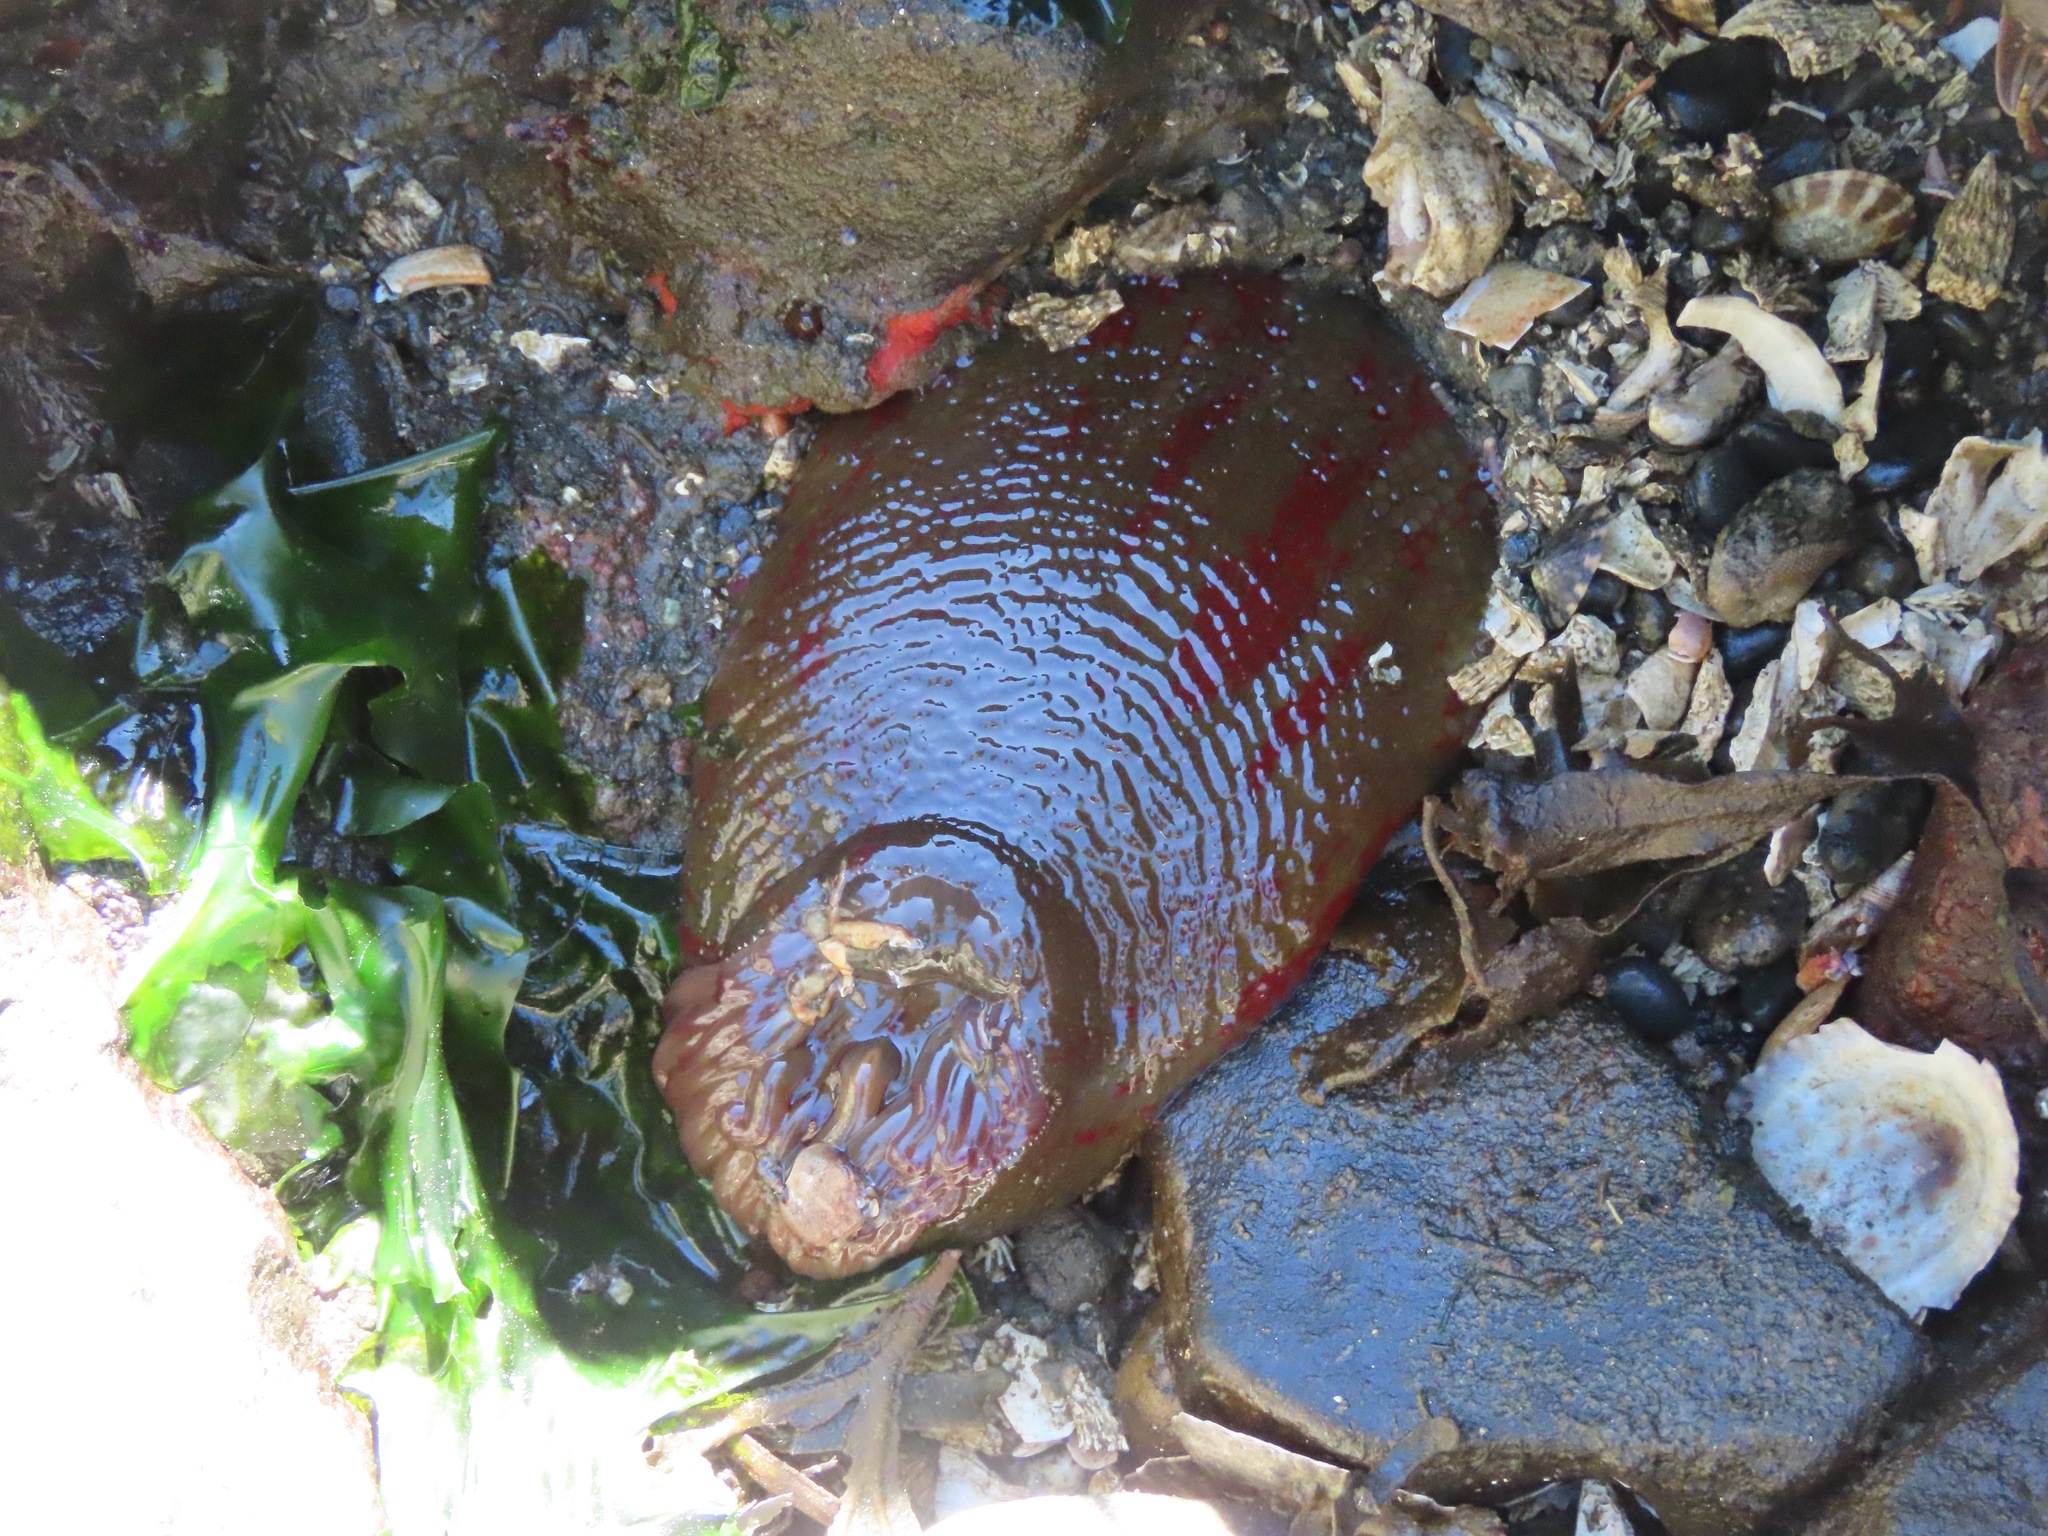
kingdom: Animalia
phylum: Cnidaria
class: Anthozoa
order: Actiniaria
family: Actiniidae
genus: Urticina
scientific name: Urticina grebelnyi
